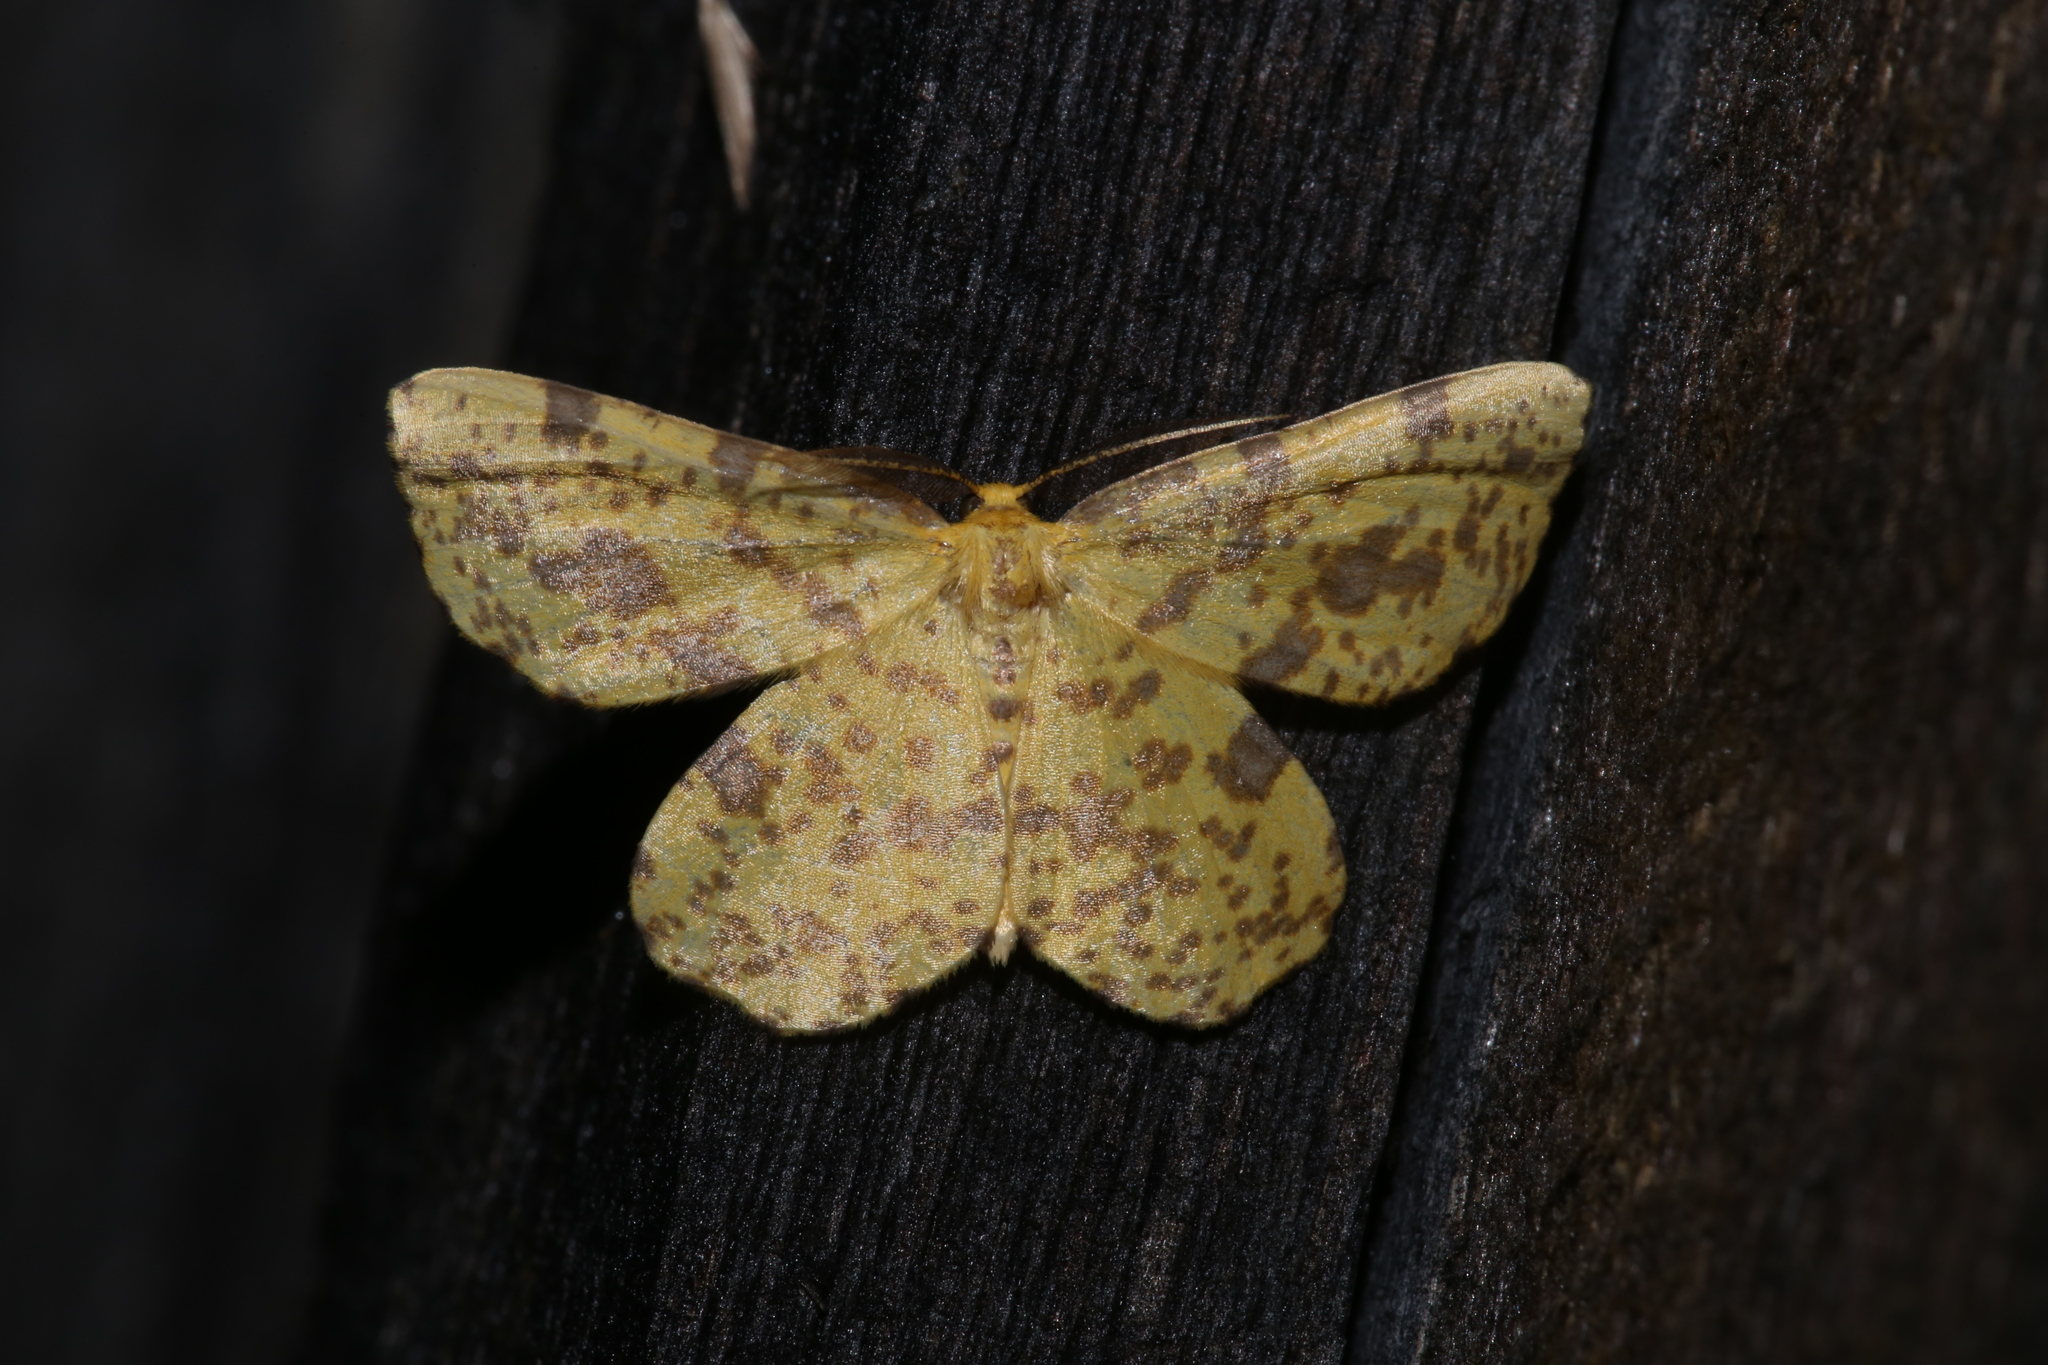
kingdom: Animalia
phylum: Arthropoda
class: Insecta
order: Lepidoptera
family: Geometridae
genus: Xanthotype
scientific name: Xanthotype
